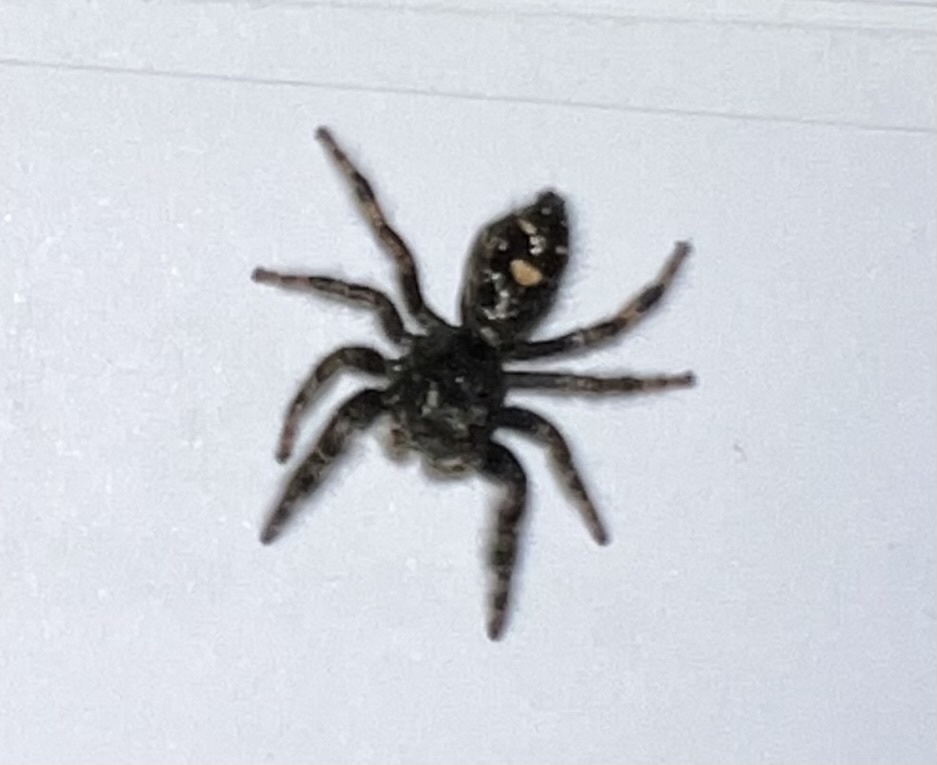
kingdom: Animalia
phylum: Arthropoda
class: Arachnida
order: Araneae
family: Salticidae
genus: Phidippus
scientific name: Phidippus audax
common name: Bold jumper
